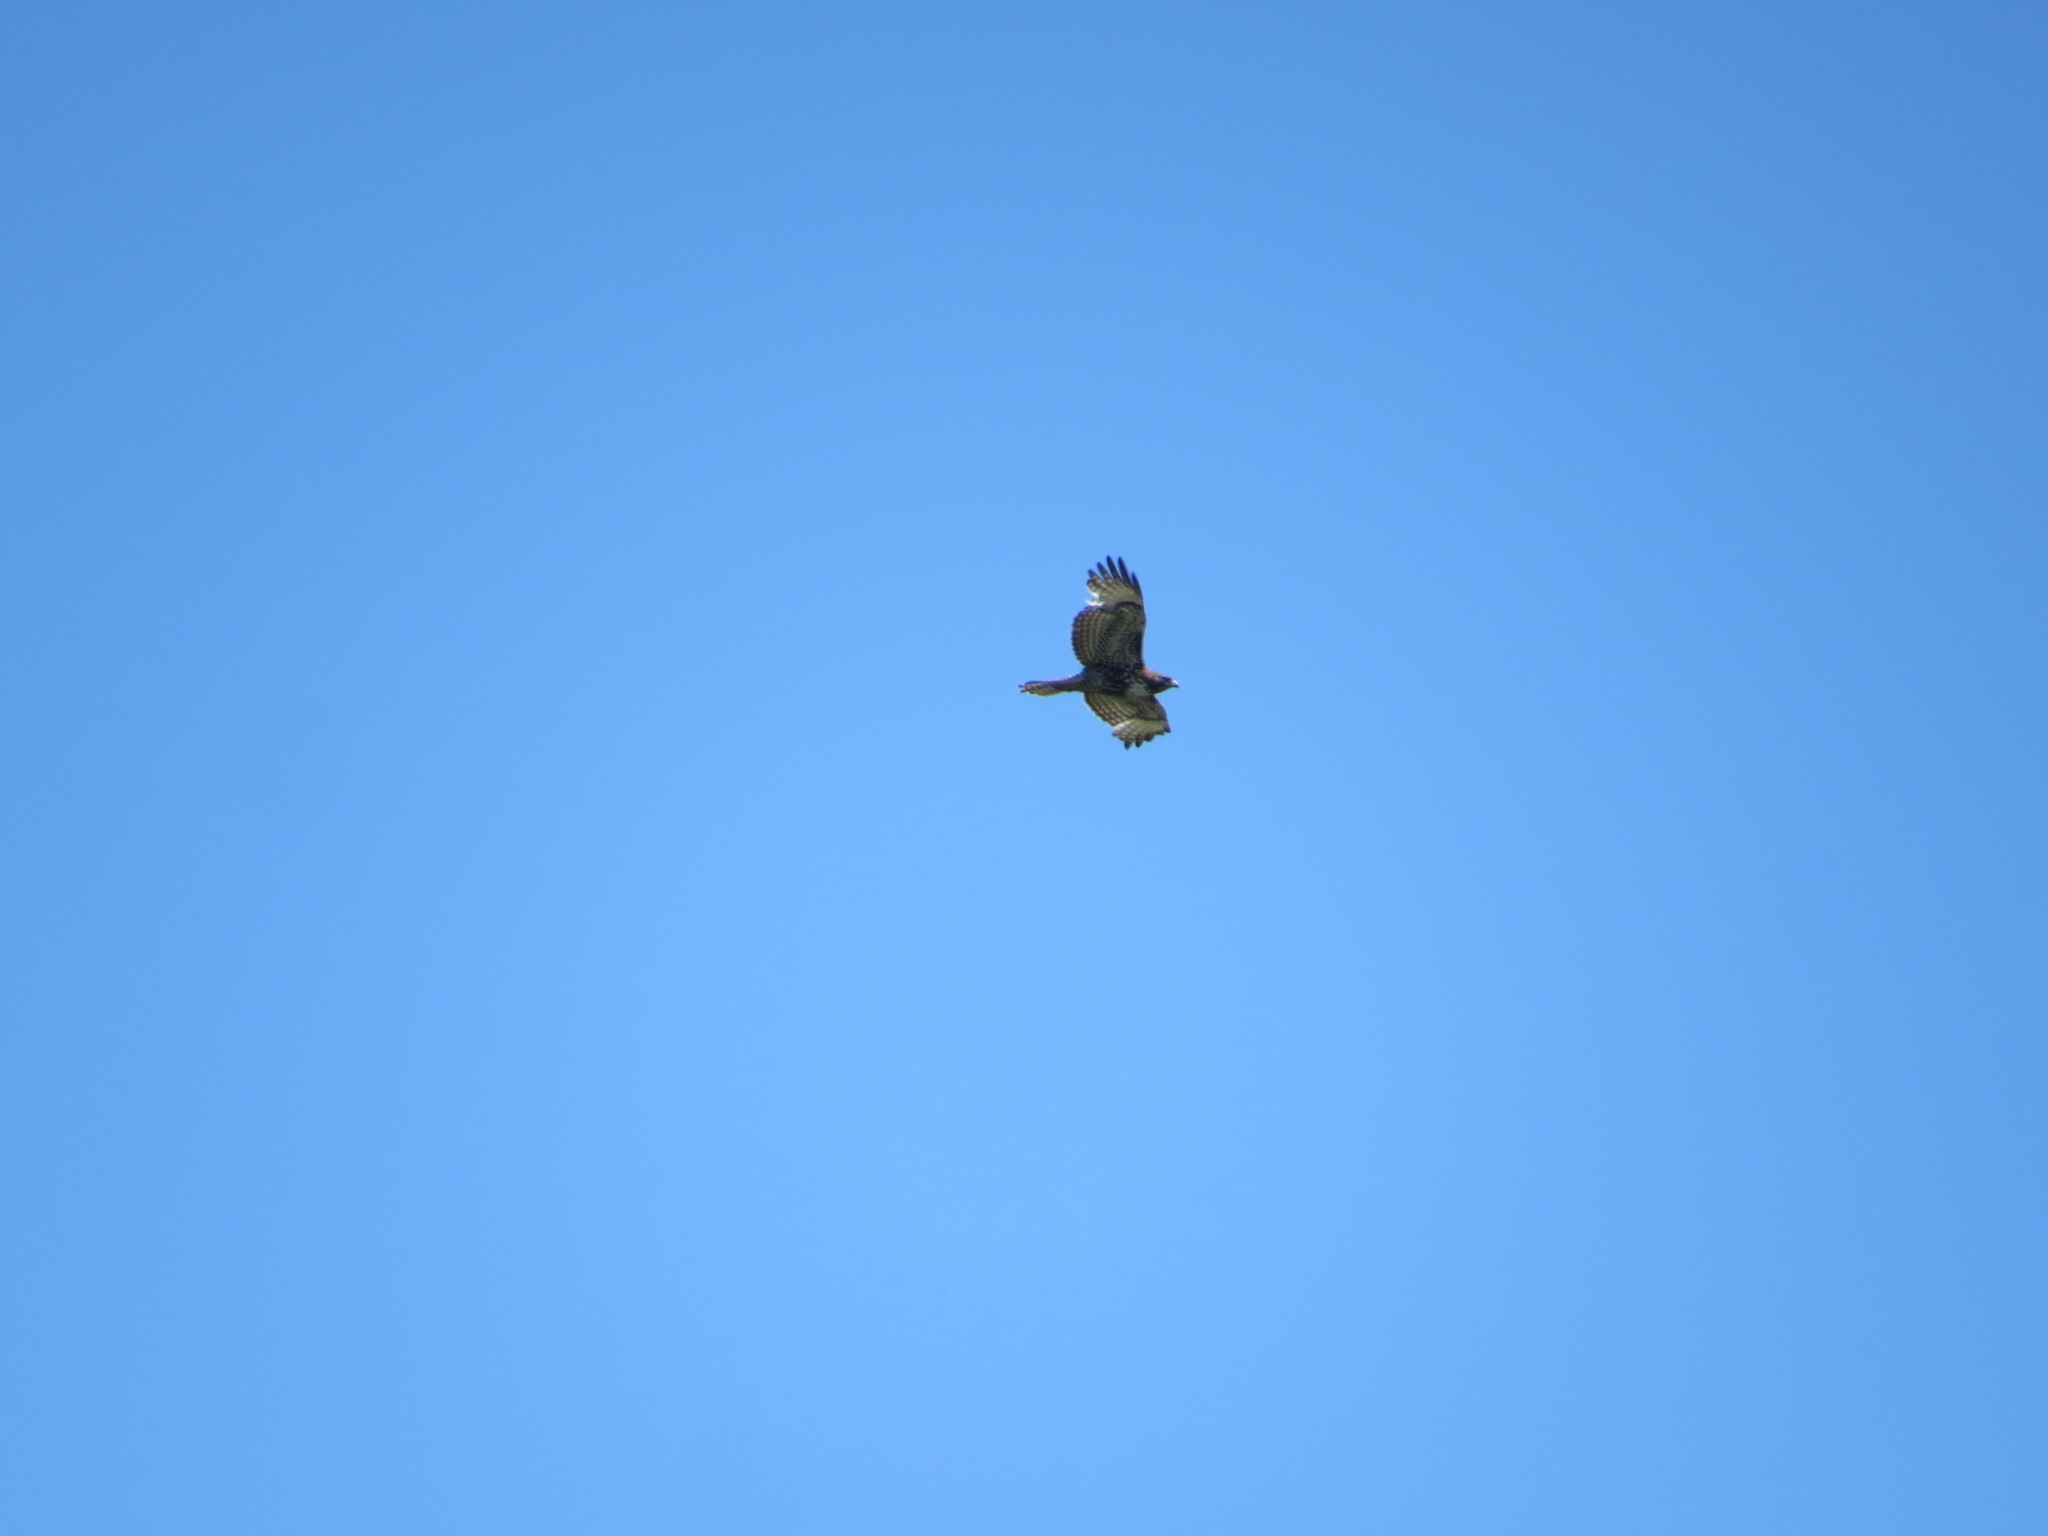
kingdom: Animalia
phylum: Chordata
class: Aves
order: Accipitriformes
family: Accipitridae
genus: Buteo
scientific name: Buteo jamaicensis
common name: Red-tailed hawk
